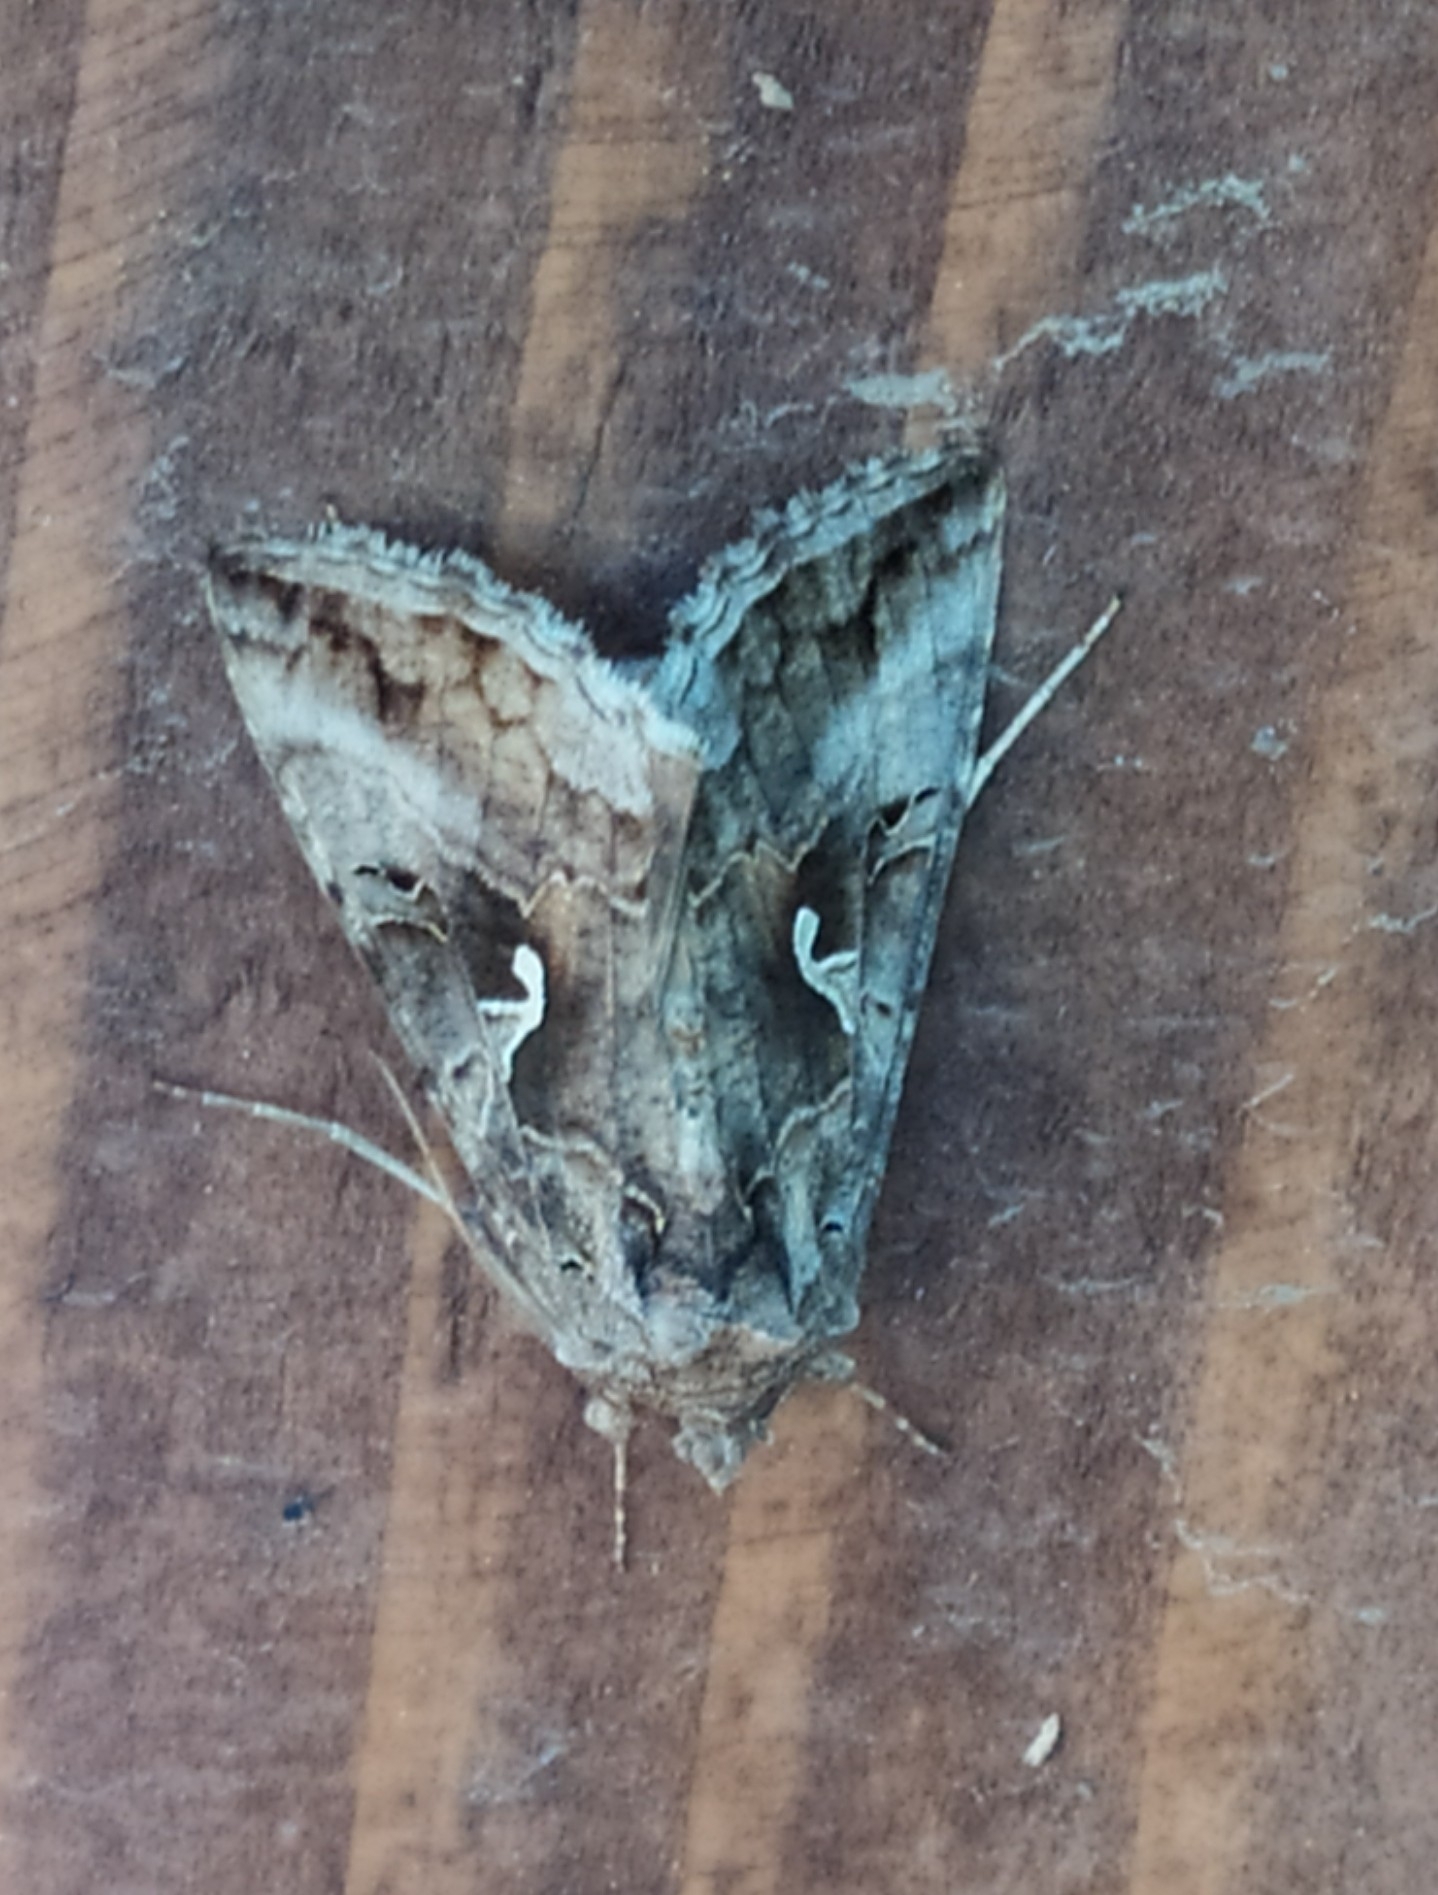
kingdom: Animalia
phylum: Arthropoda
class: Insecta
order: Lepidoptera
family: Noctuidae
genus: Autographa
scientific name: Autographa gamma
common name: Silver y
